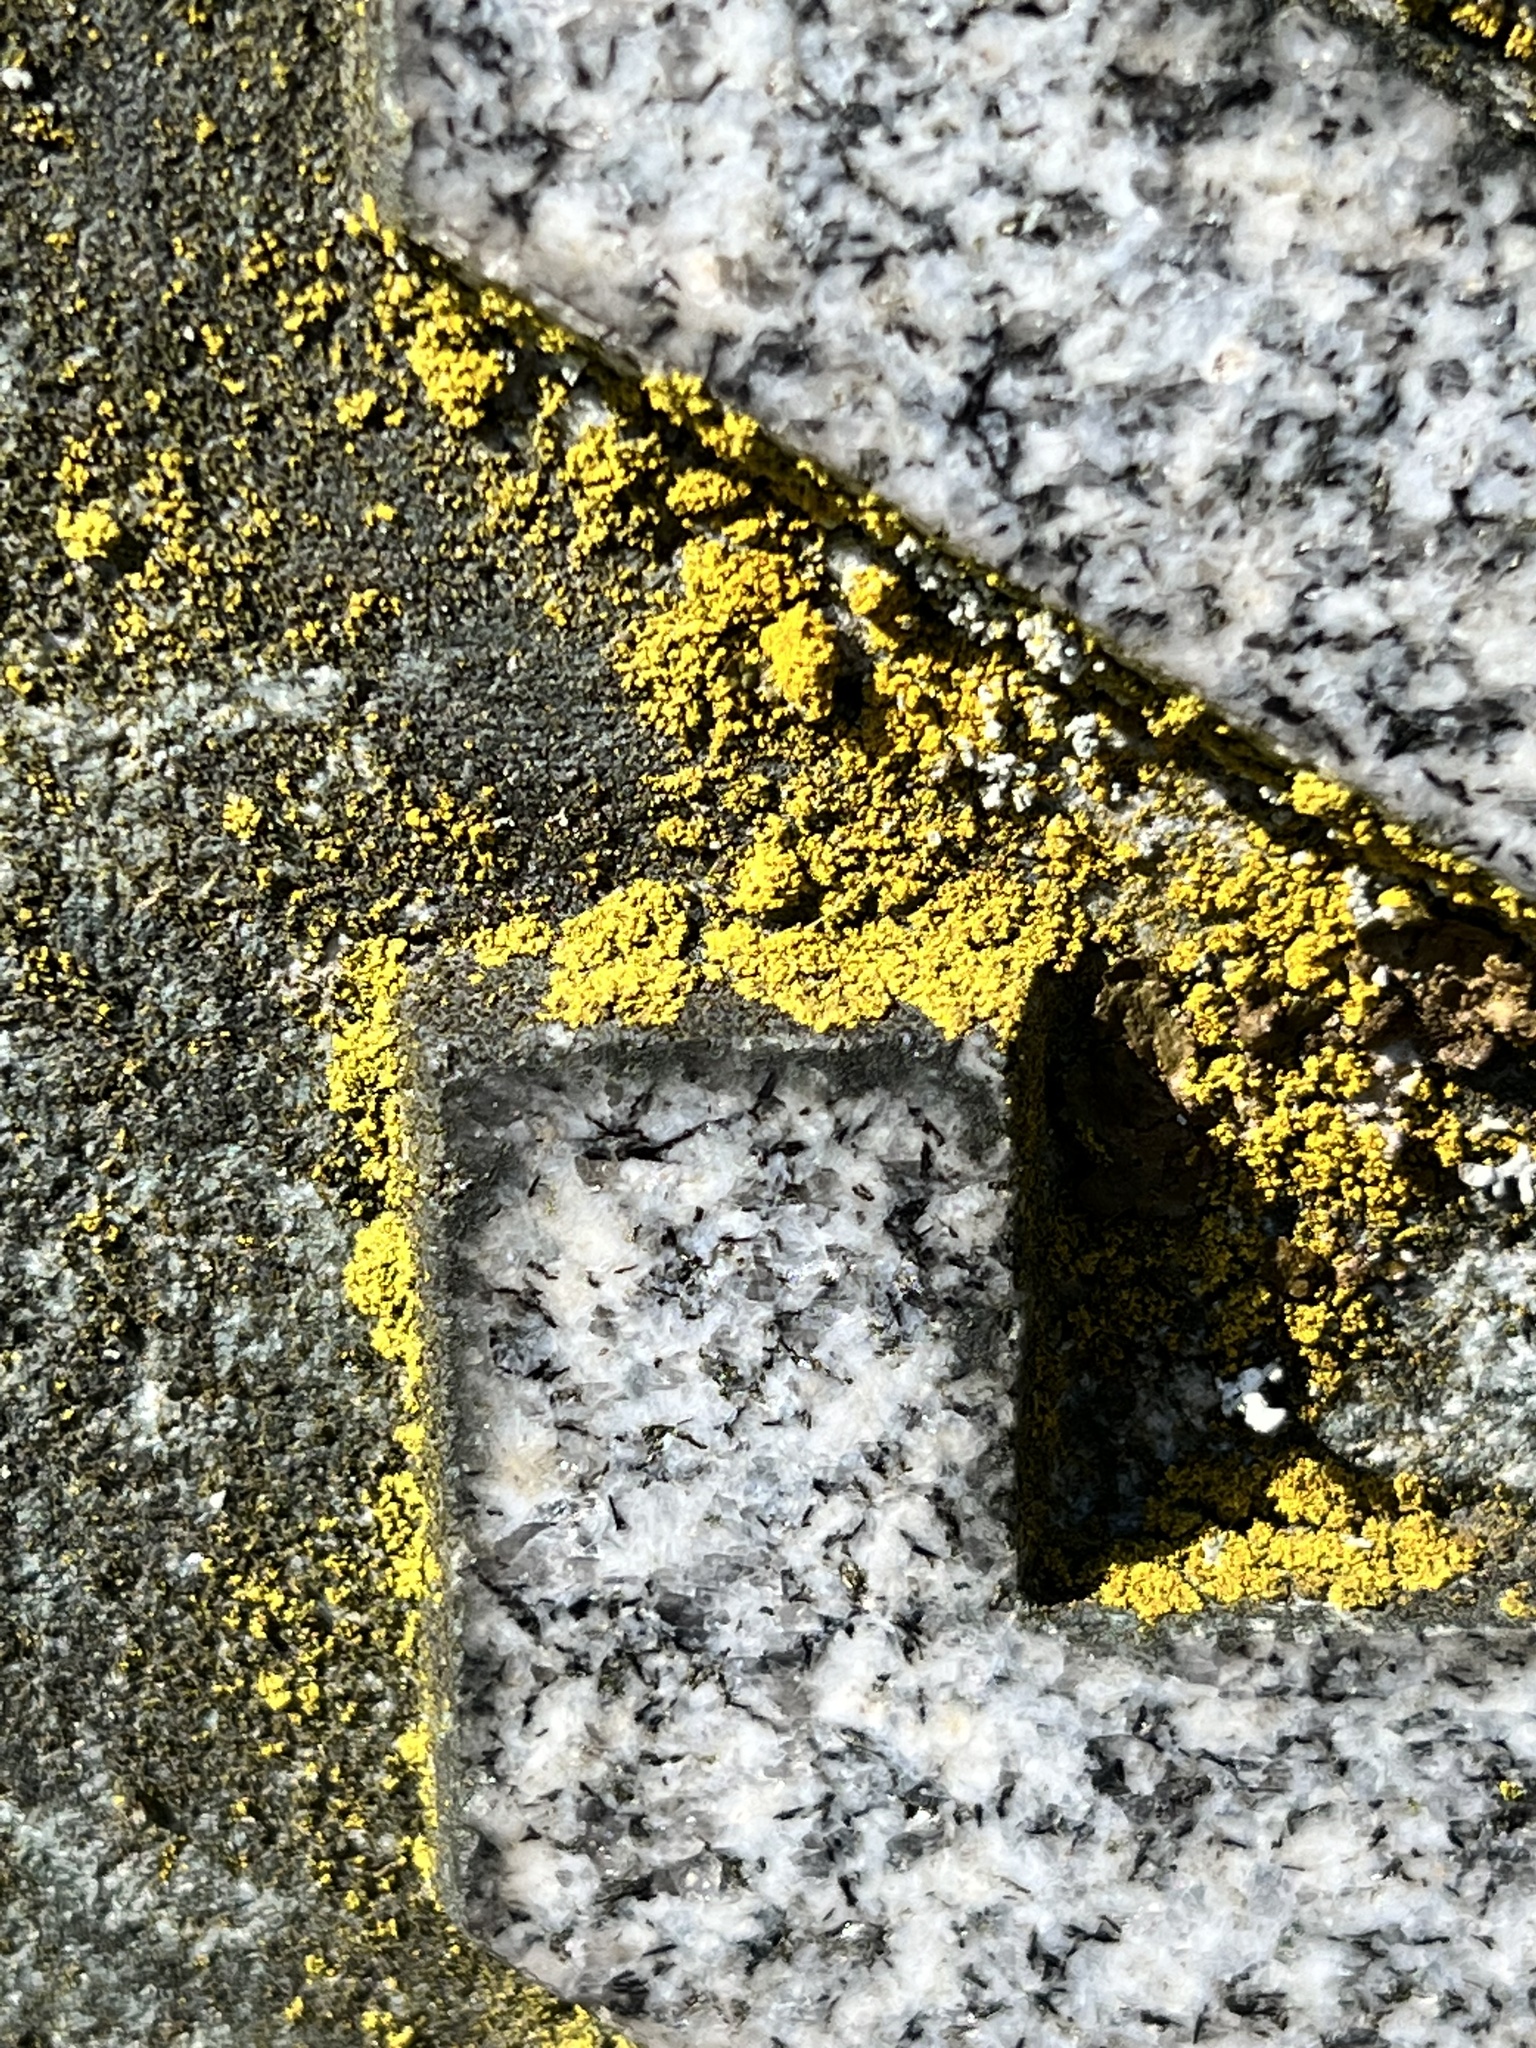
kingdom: Fungi
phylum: Ascomycota
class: Candelariomycetes
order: Candelariales
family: Candelariaceae
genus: Candelaria
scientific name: Candelaria pacifica
